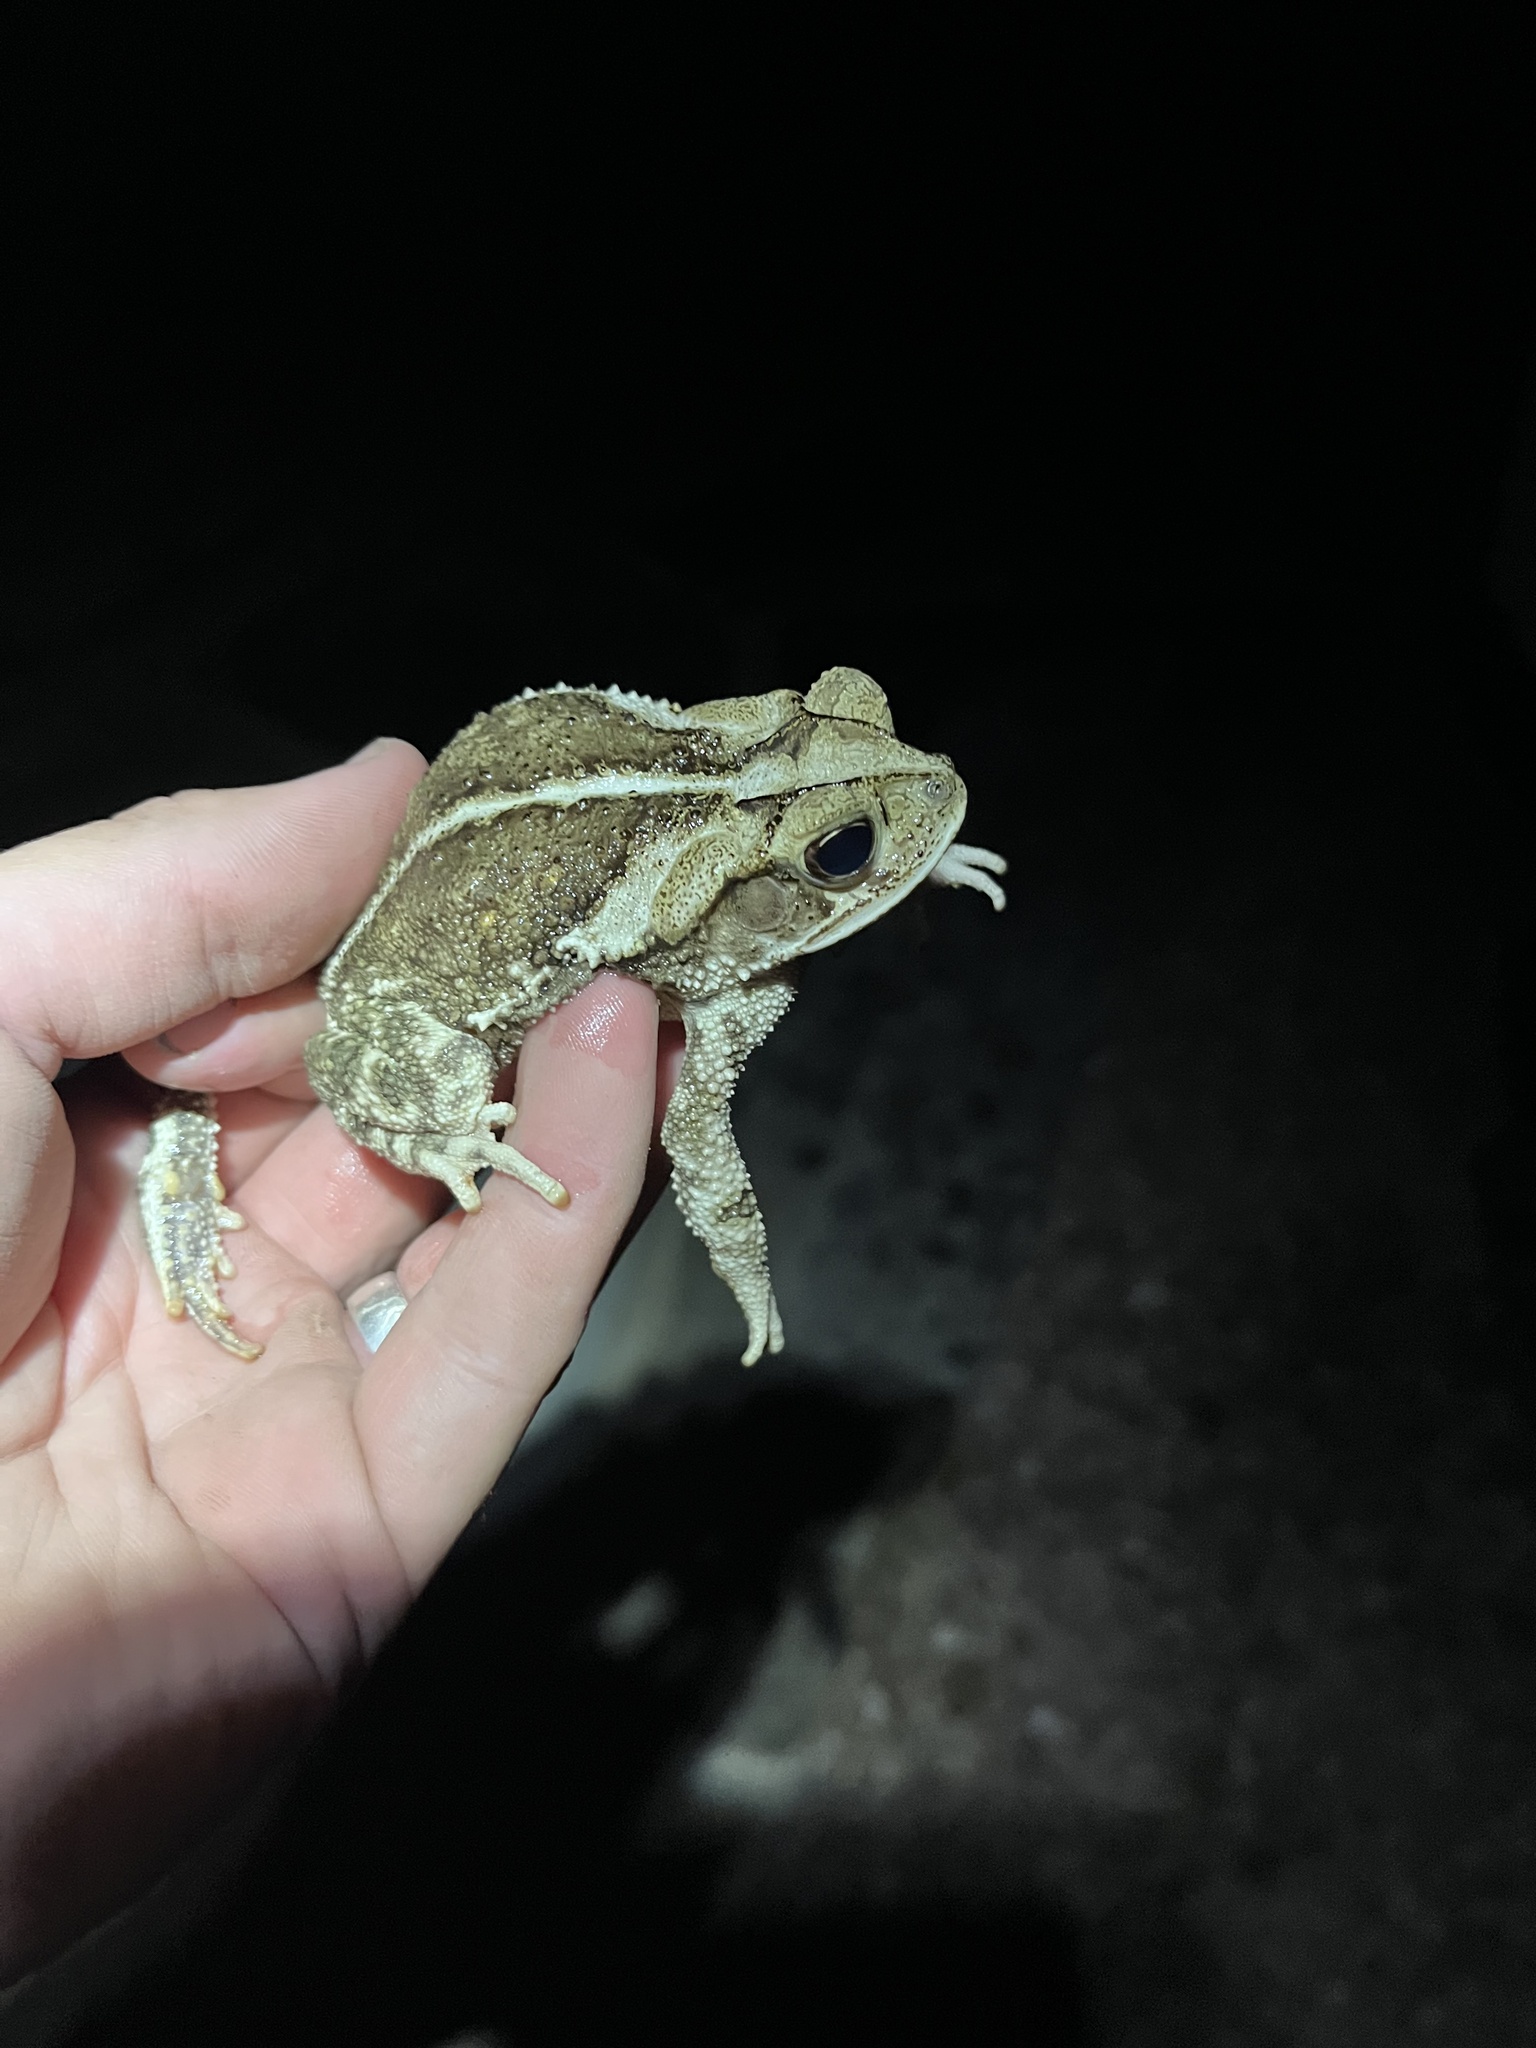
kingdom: Animalia
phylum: Chordata
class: Amphibia
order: Anura
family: Bufonidae
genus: Incilius
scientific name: Incilius nebulifer
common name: Gulf coast toad
